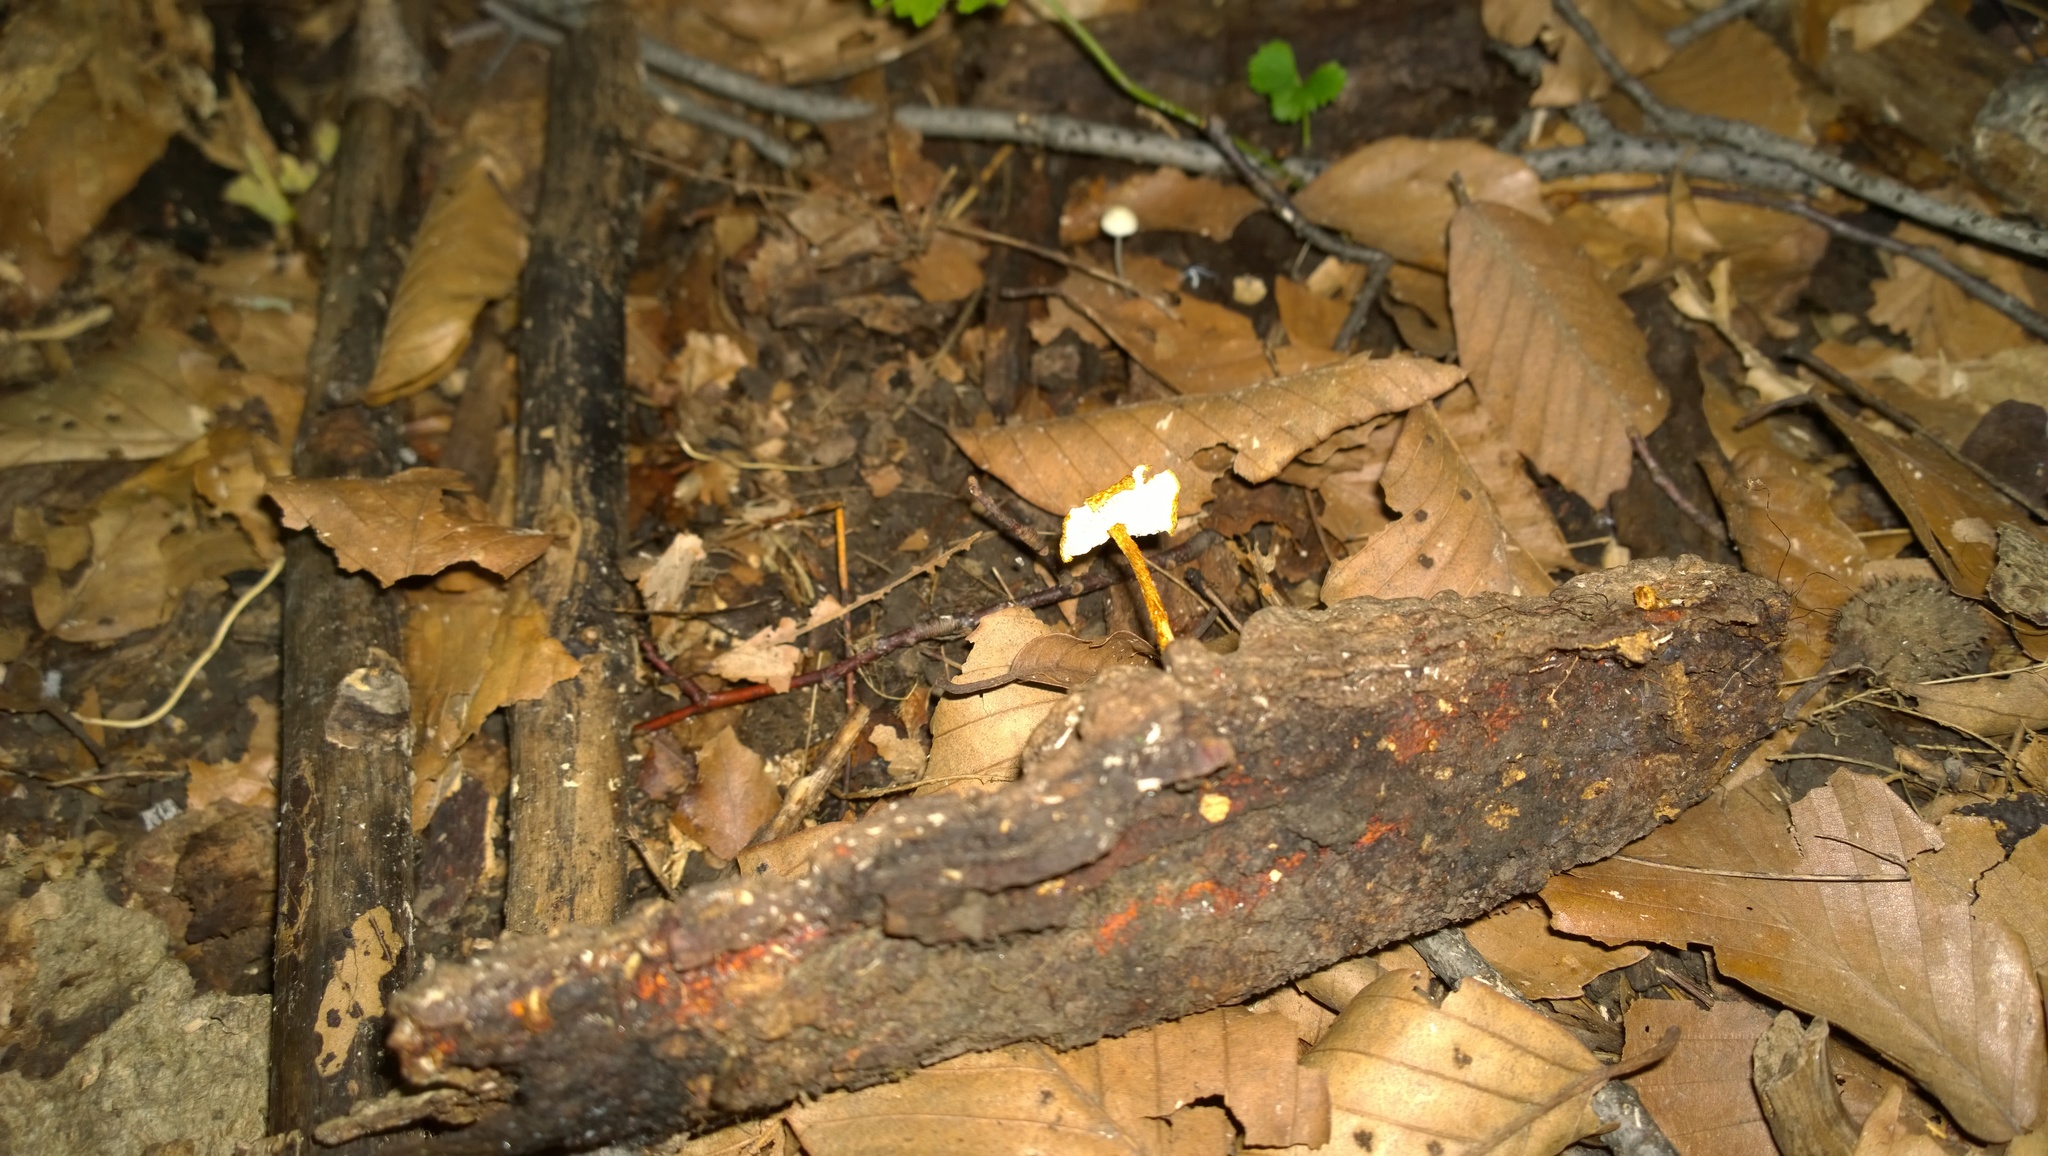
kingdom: Fungi
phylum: Basidiomycota
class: Agaricomycetes
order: Agaricales
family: Tricholomataceae
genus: Collybia
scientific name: Collybia zonata
